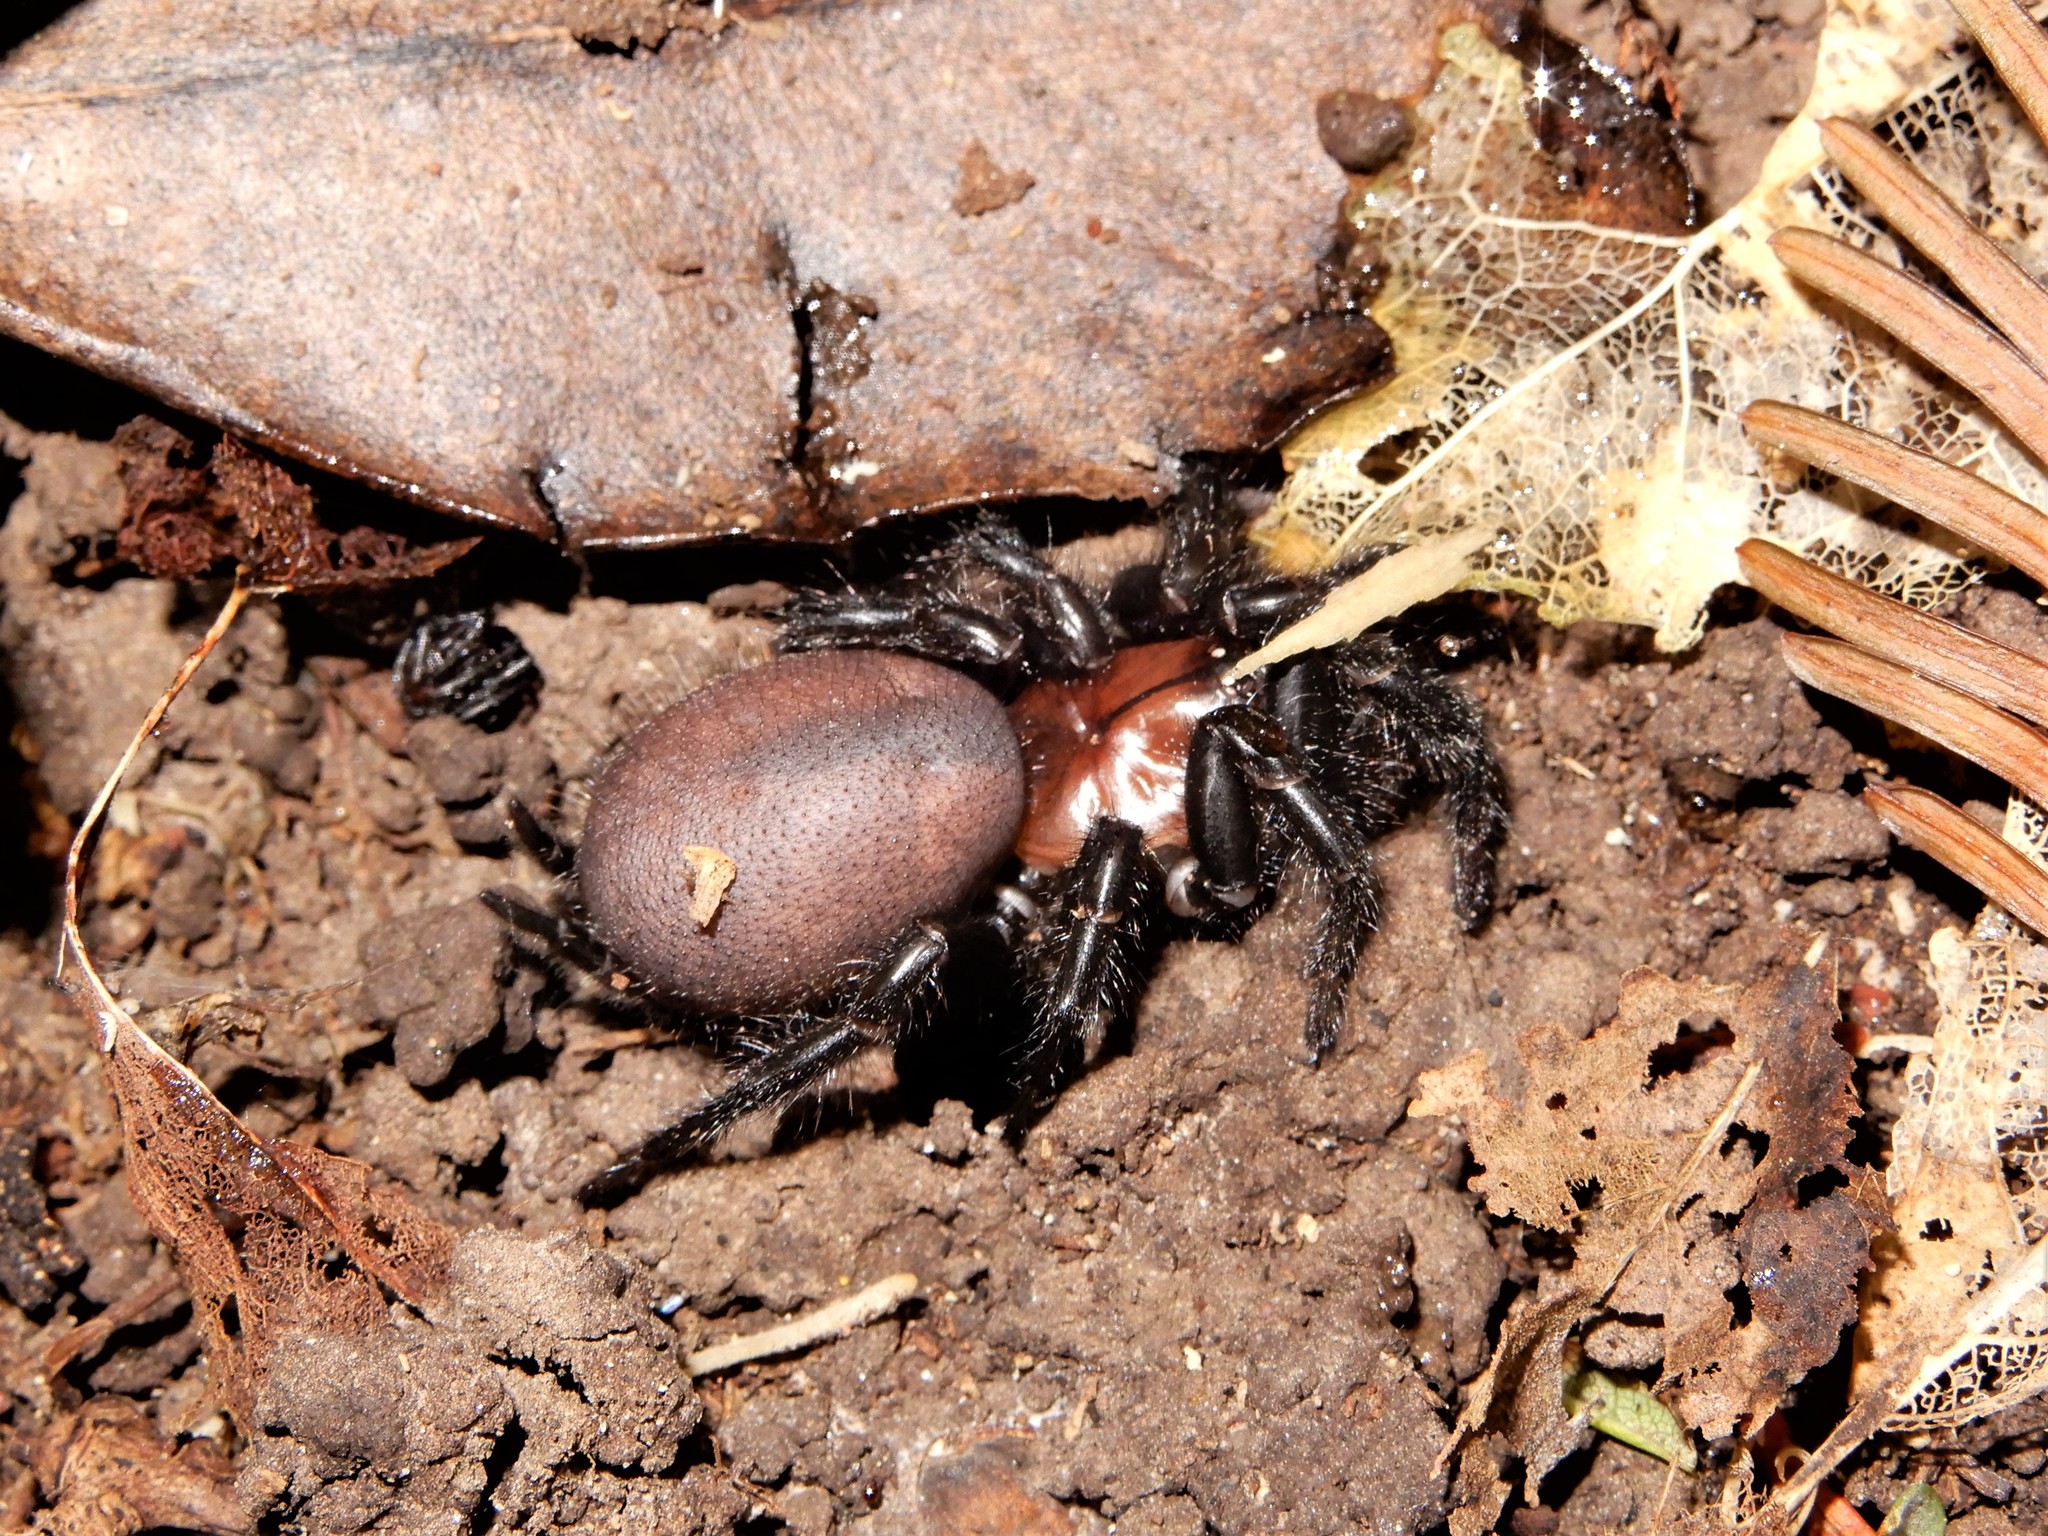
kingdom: Animalia
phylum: Arthropoda
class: Arachnida
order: Araneae
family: Porrhothelidae
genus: Porrhothele
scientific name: Porrhothele antipodiana
